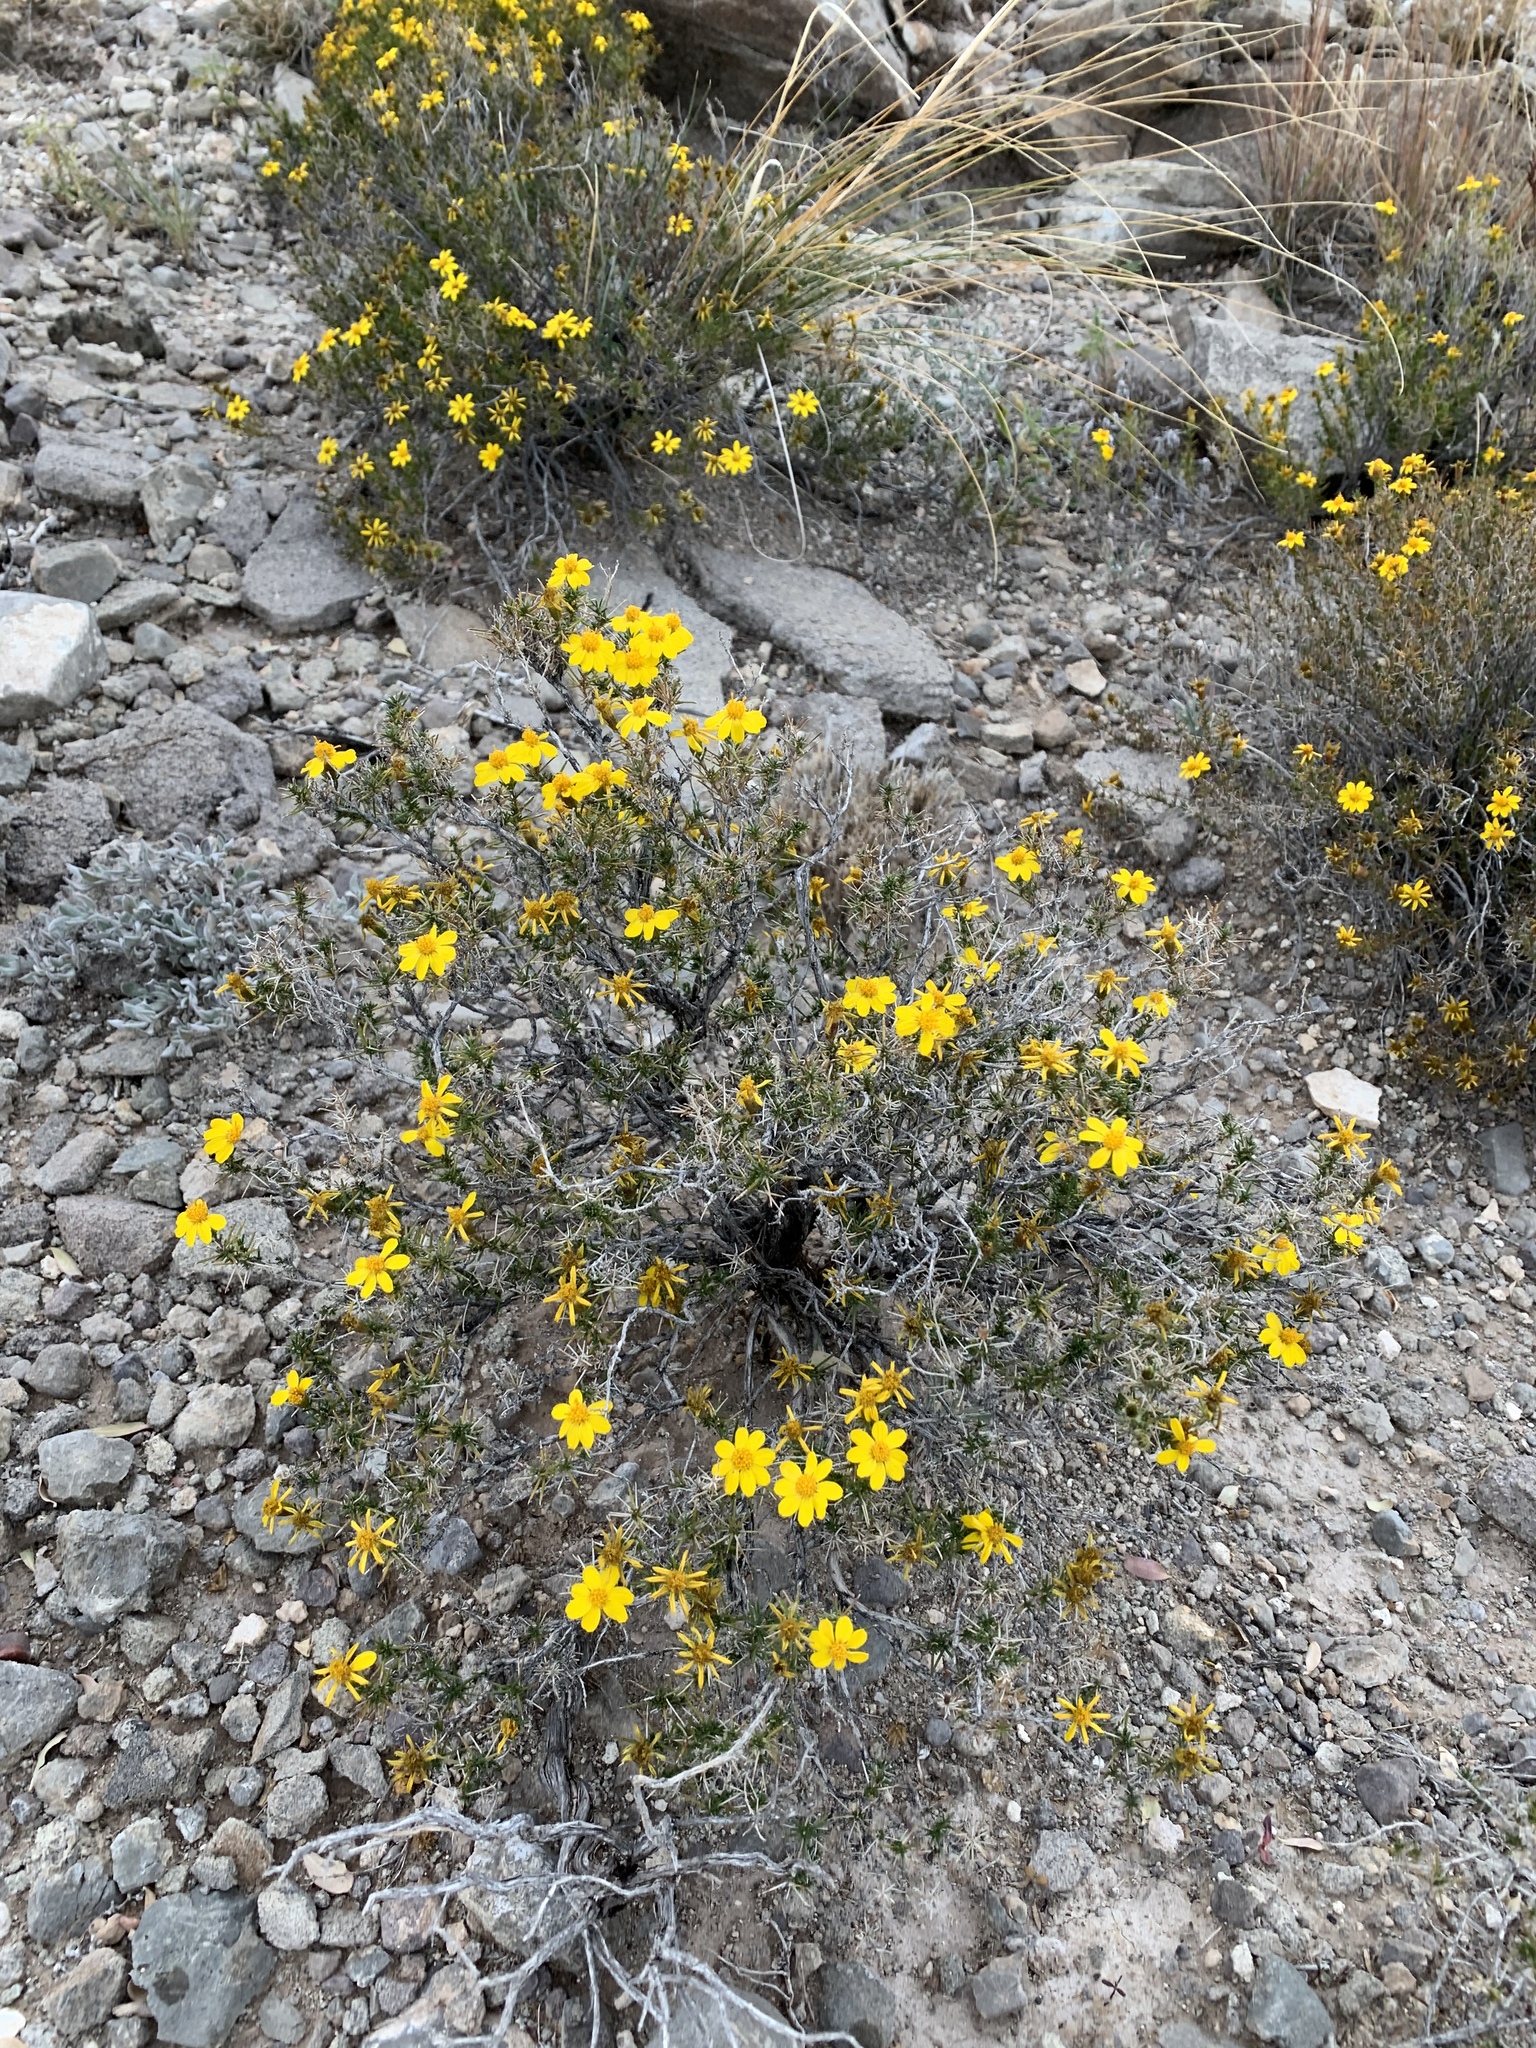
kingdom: Plantae
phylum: Tracheophyta
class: Magnoliopsida
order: Asterales
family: Asteraceae
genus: Thymophylla
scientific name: Thymophylla acerosa
